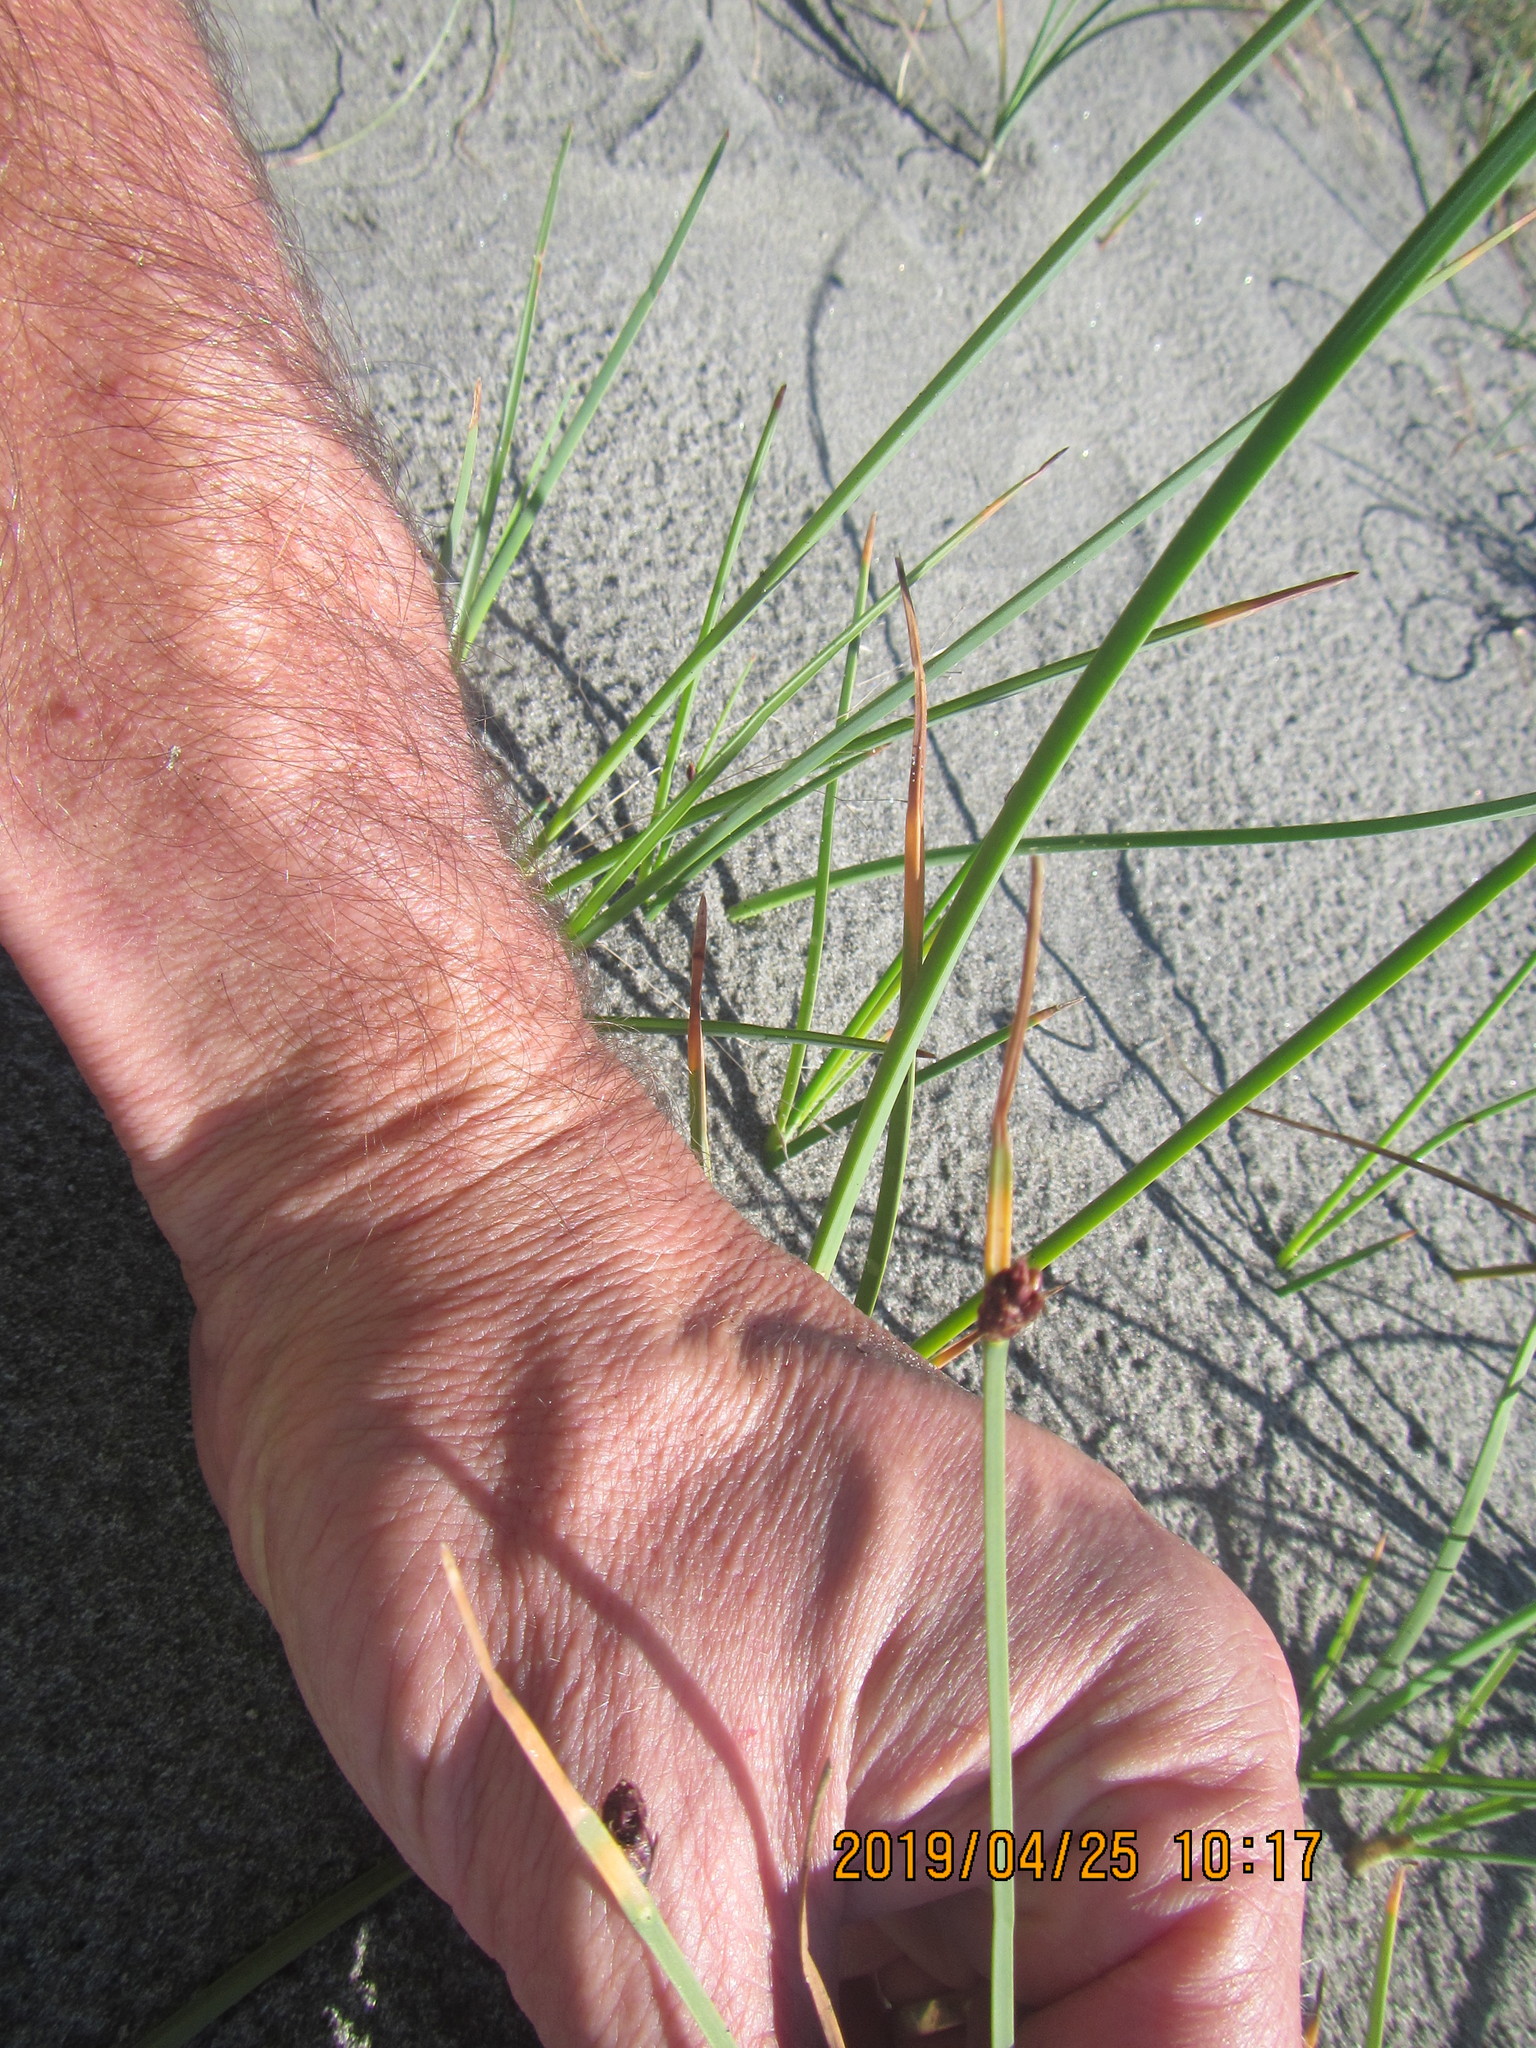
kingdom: Plantae
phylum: Tracheophyta
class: Liliopsida
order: Poales
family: Cyperaceae
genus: Schoenoplectus
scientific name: Schoenoplectus pungens
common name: Sharp club-rush
